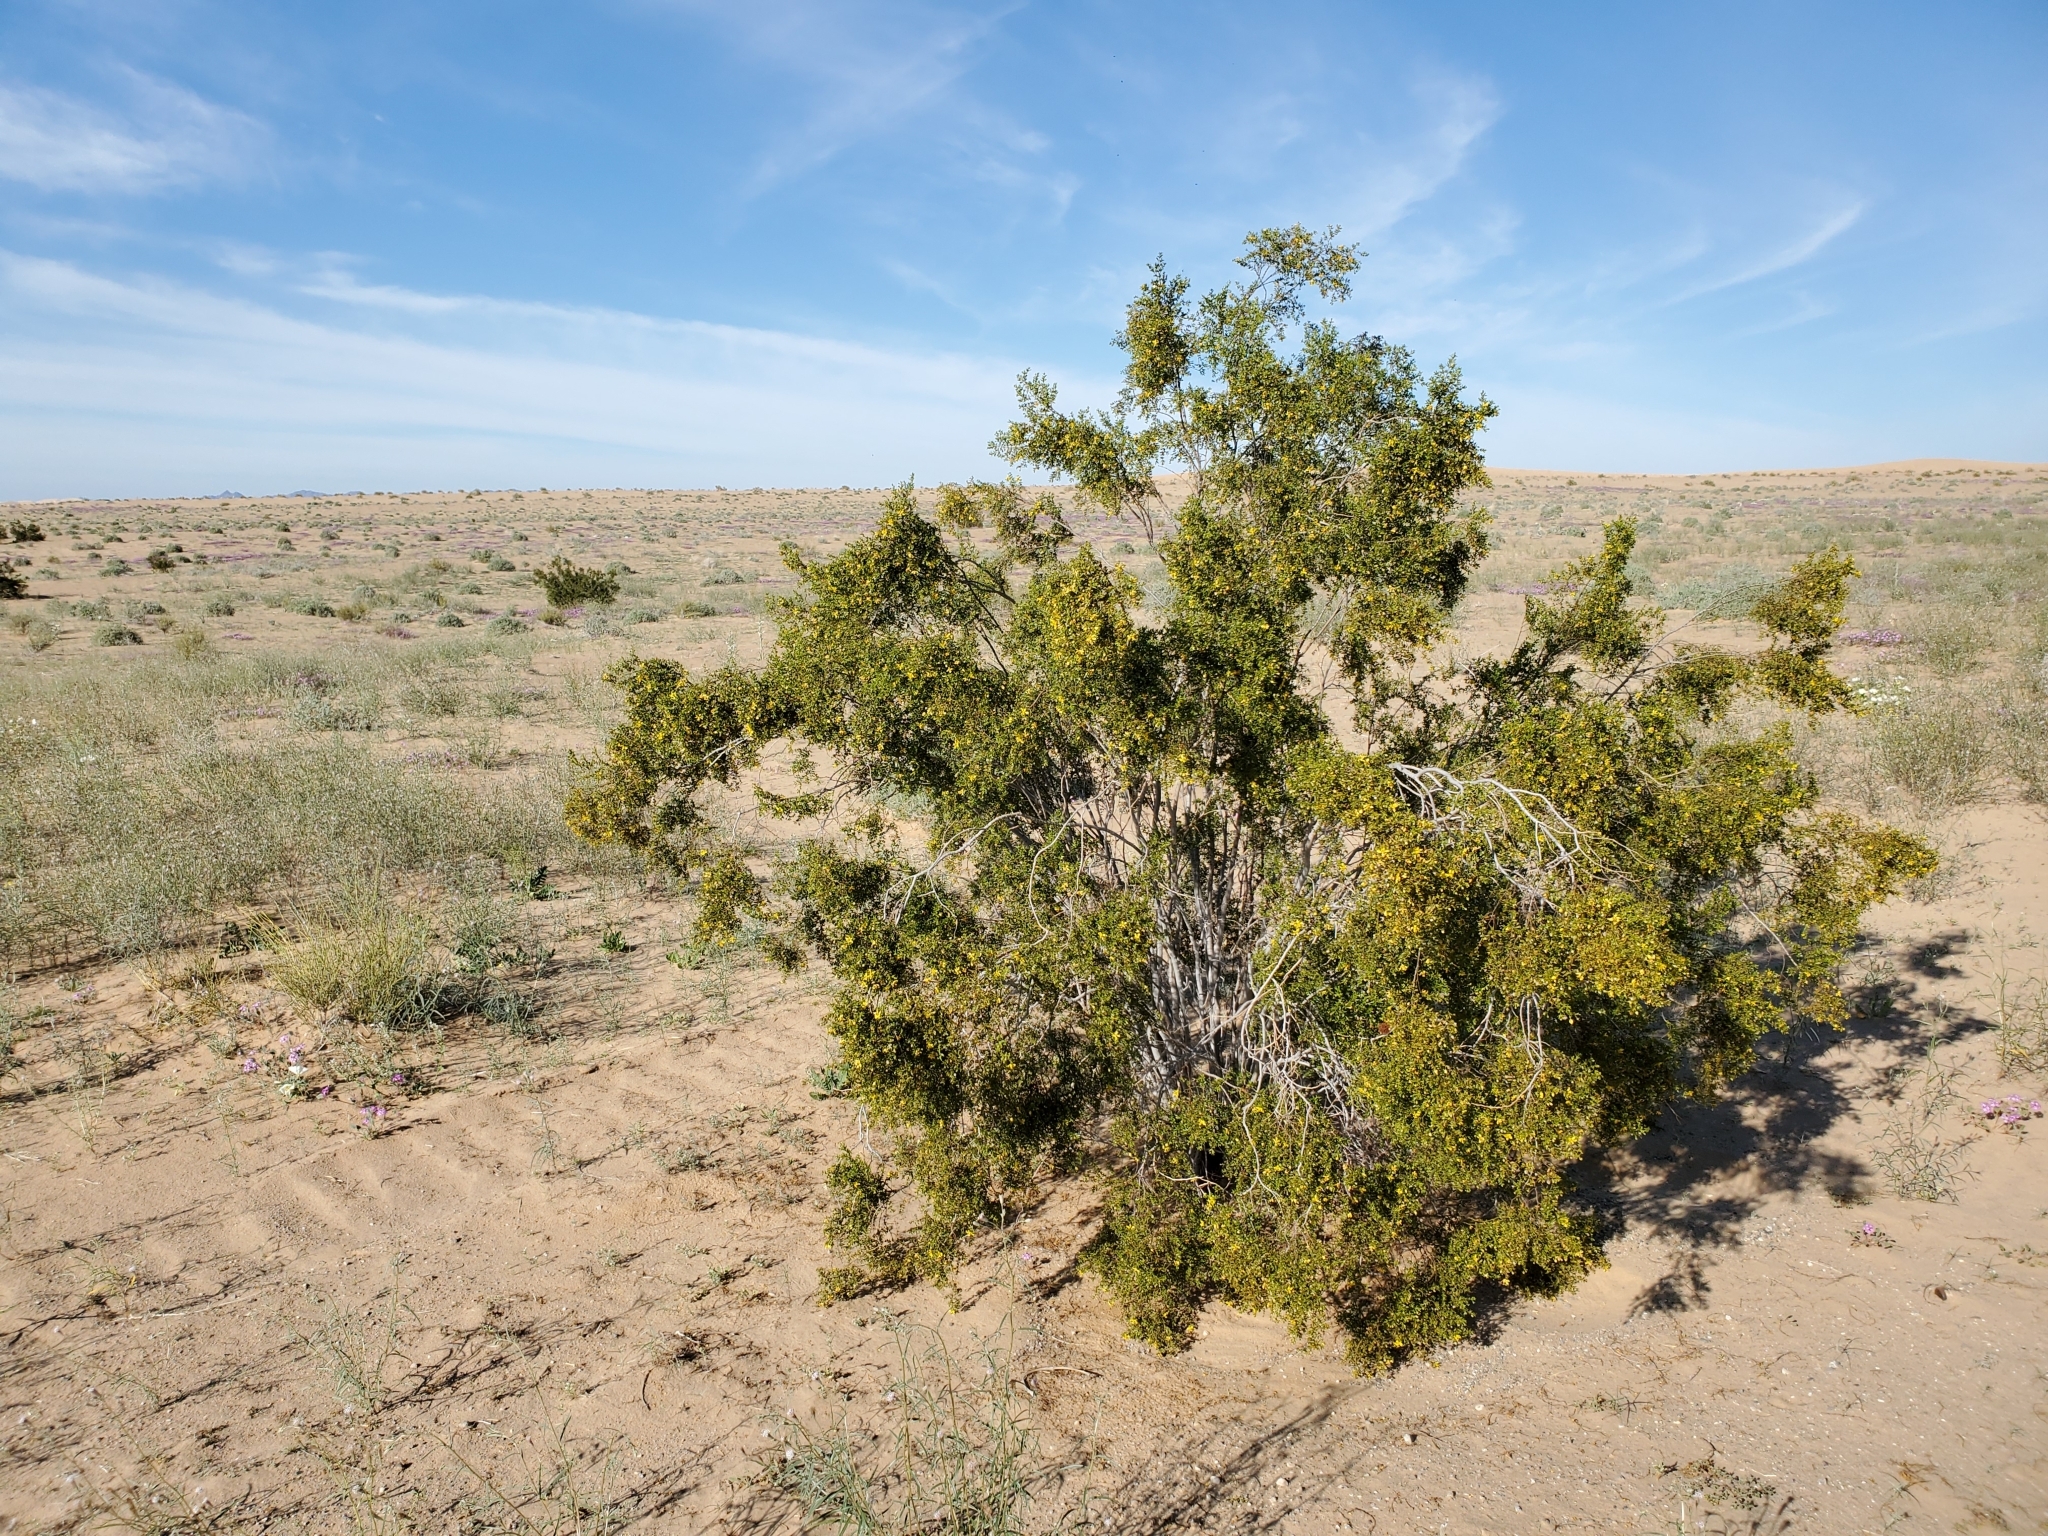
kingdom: Plantae
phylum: Tracheophyta
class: Magnoliopsida
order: Zygophyllales
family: Zygophyllaceae
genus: Larrea
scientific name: Larrea tridentata
